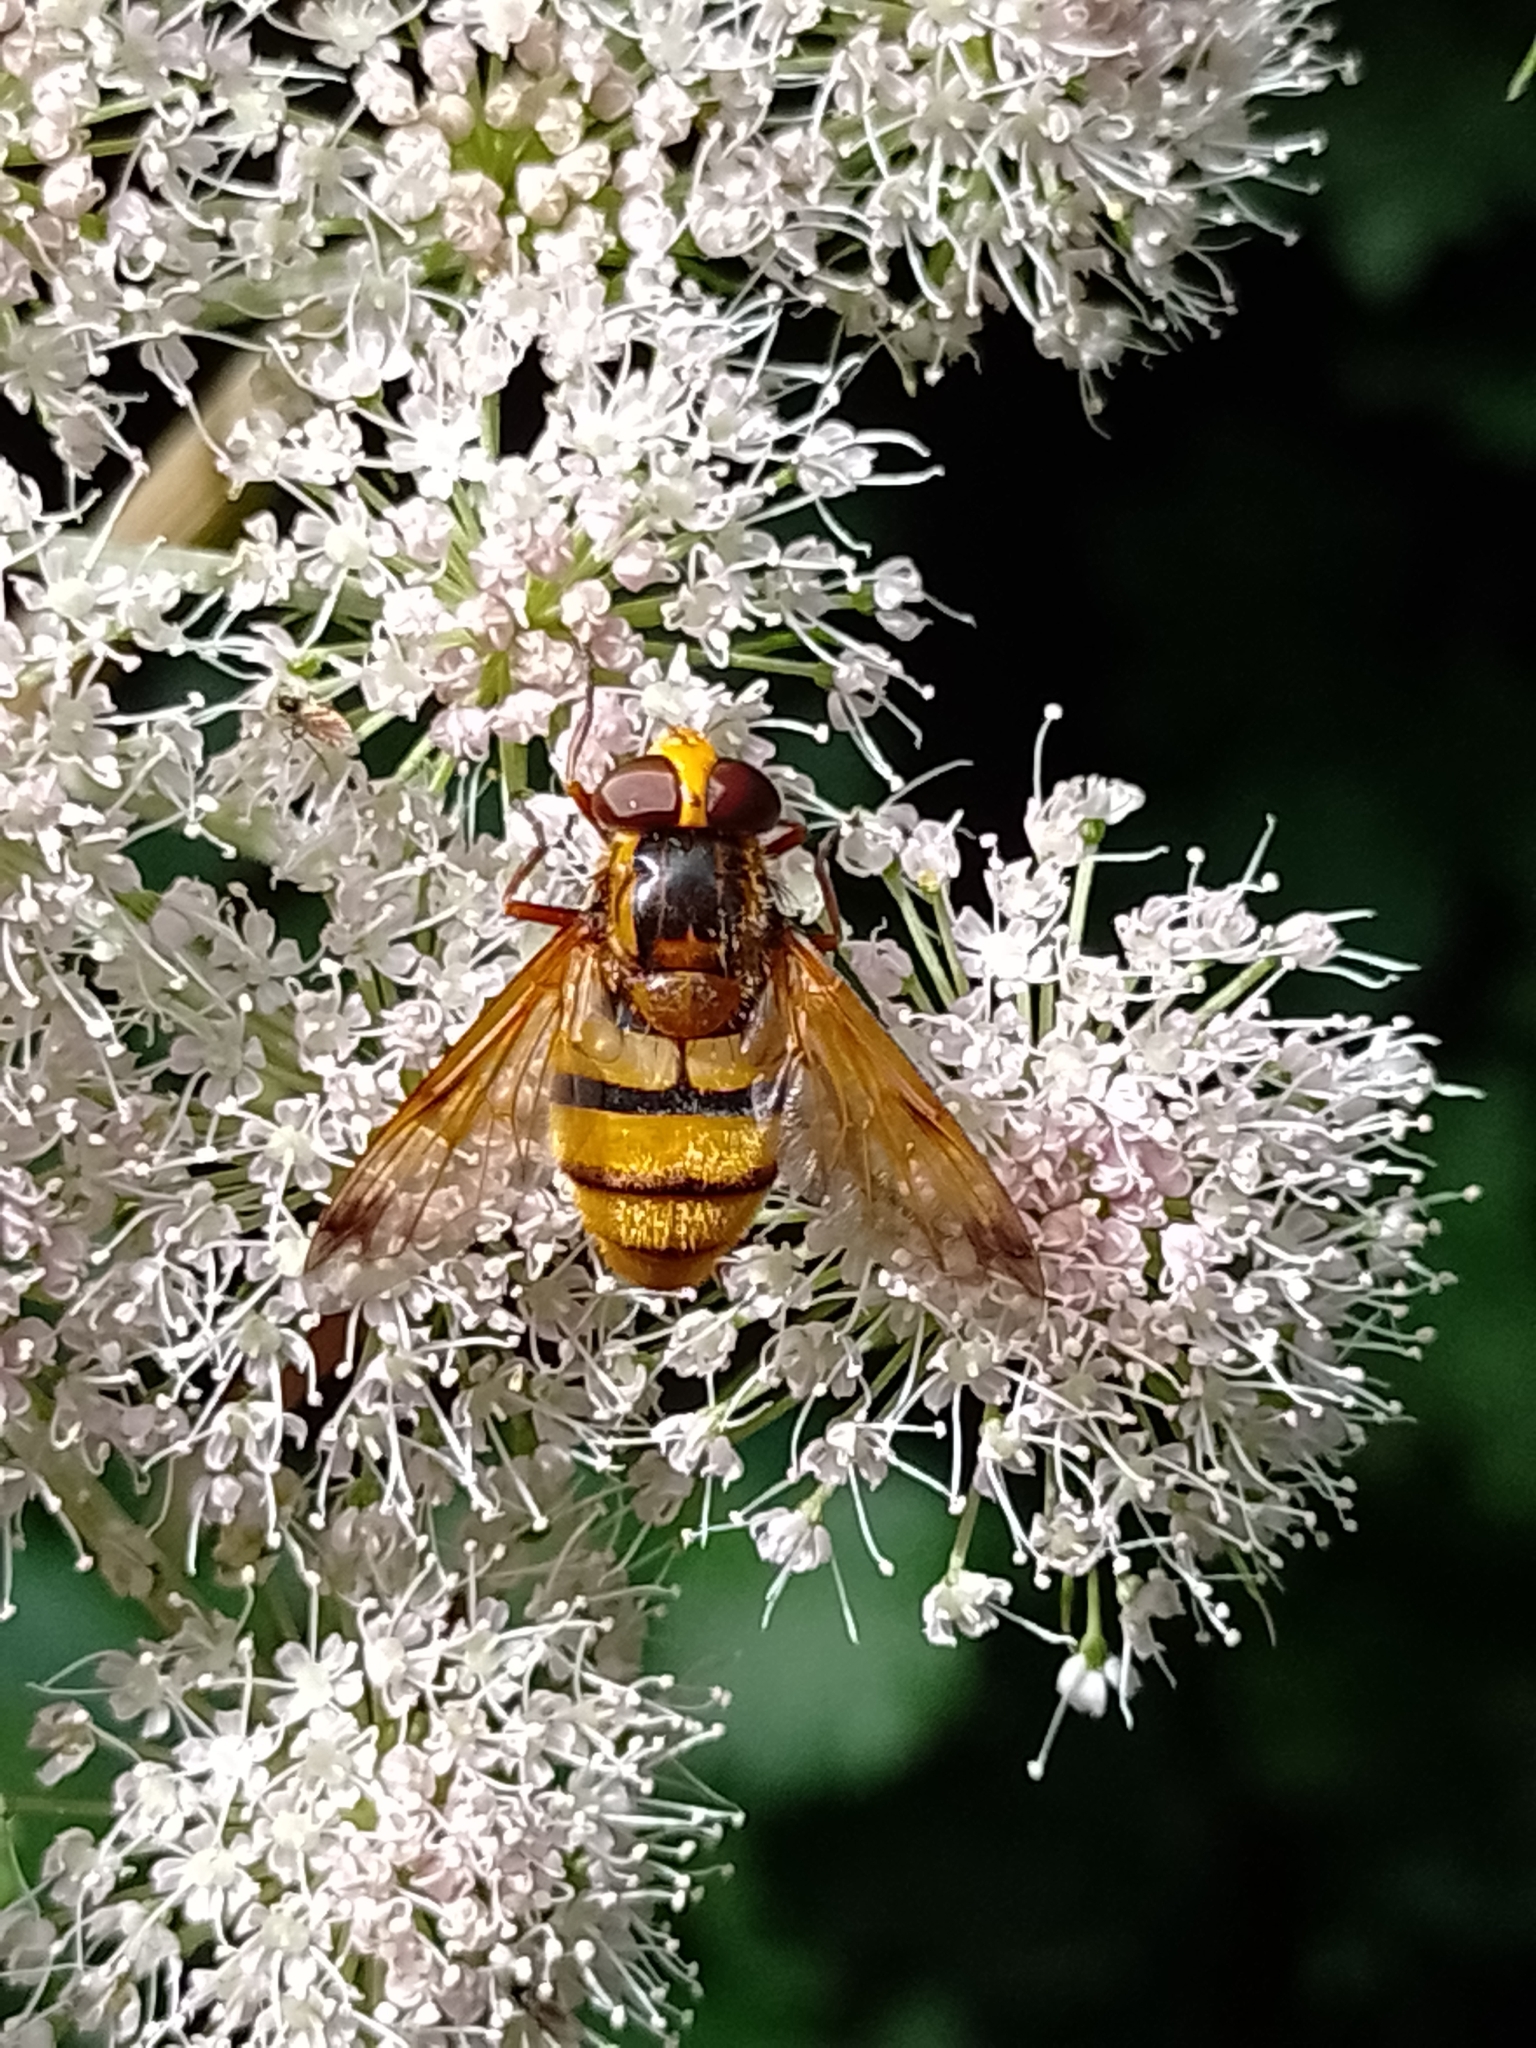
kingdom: Animalia
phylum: Arthropoda
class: Insecta
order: Diptera
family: Syrphidae
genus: Volucella
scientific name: Volucella inanis
